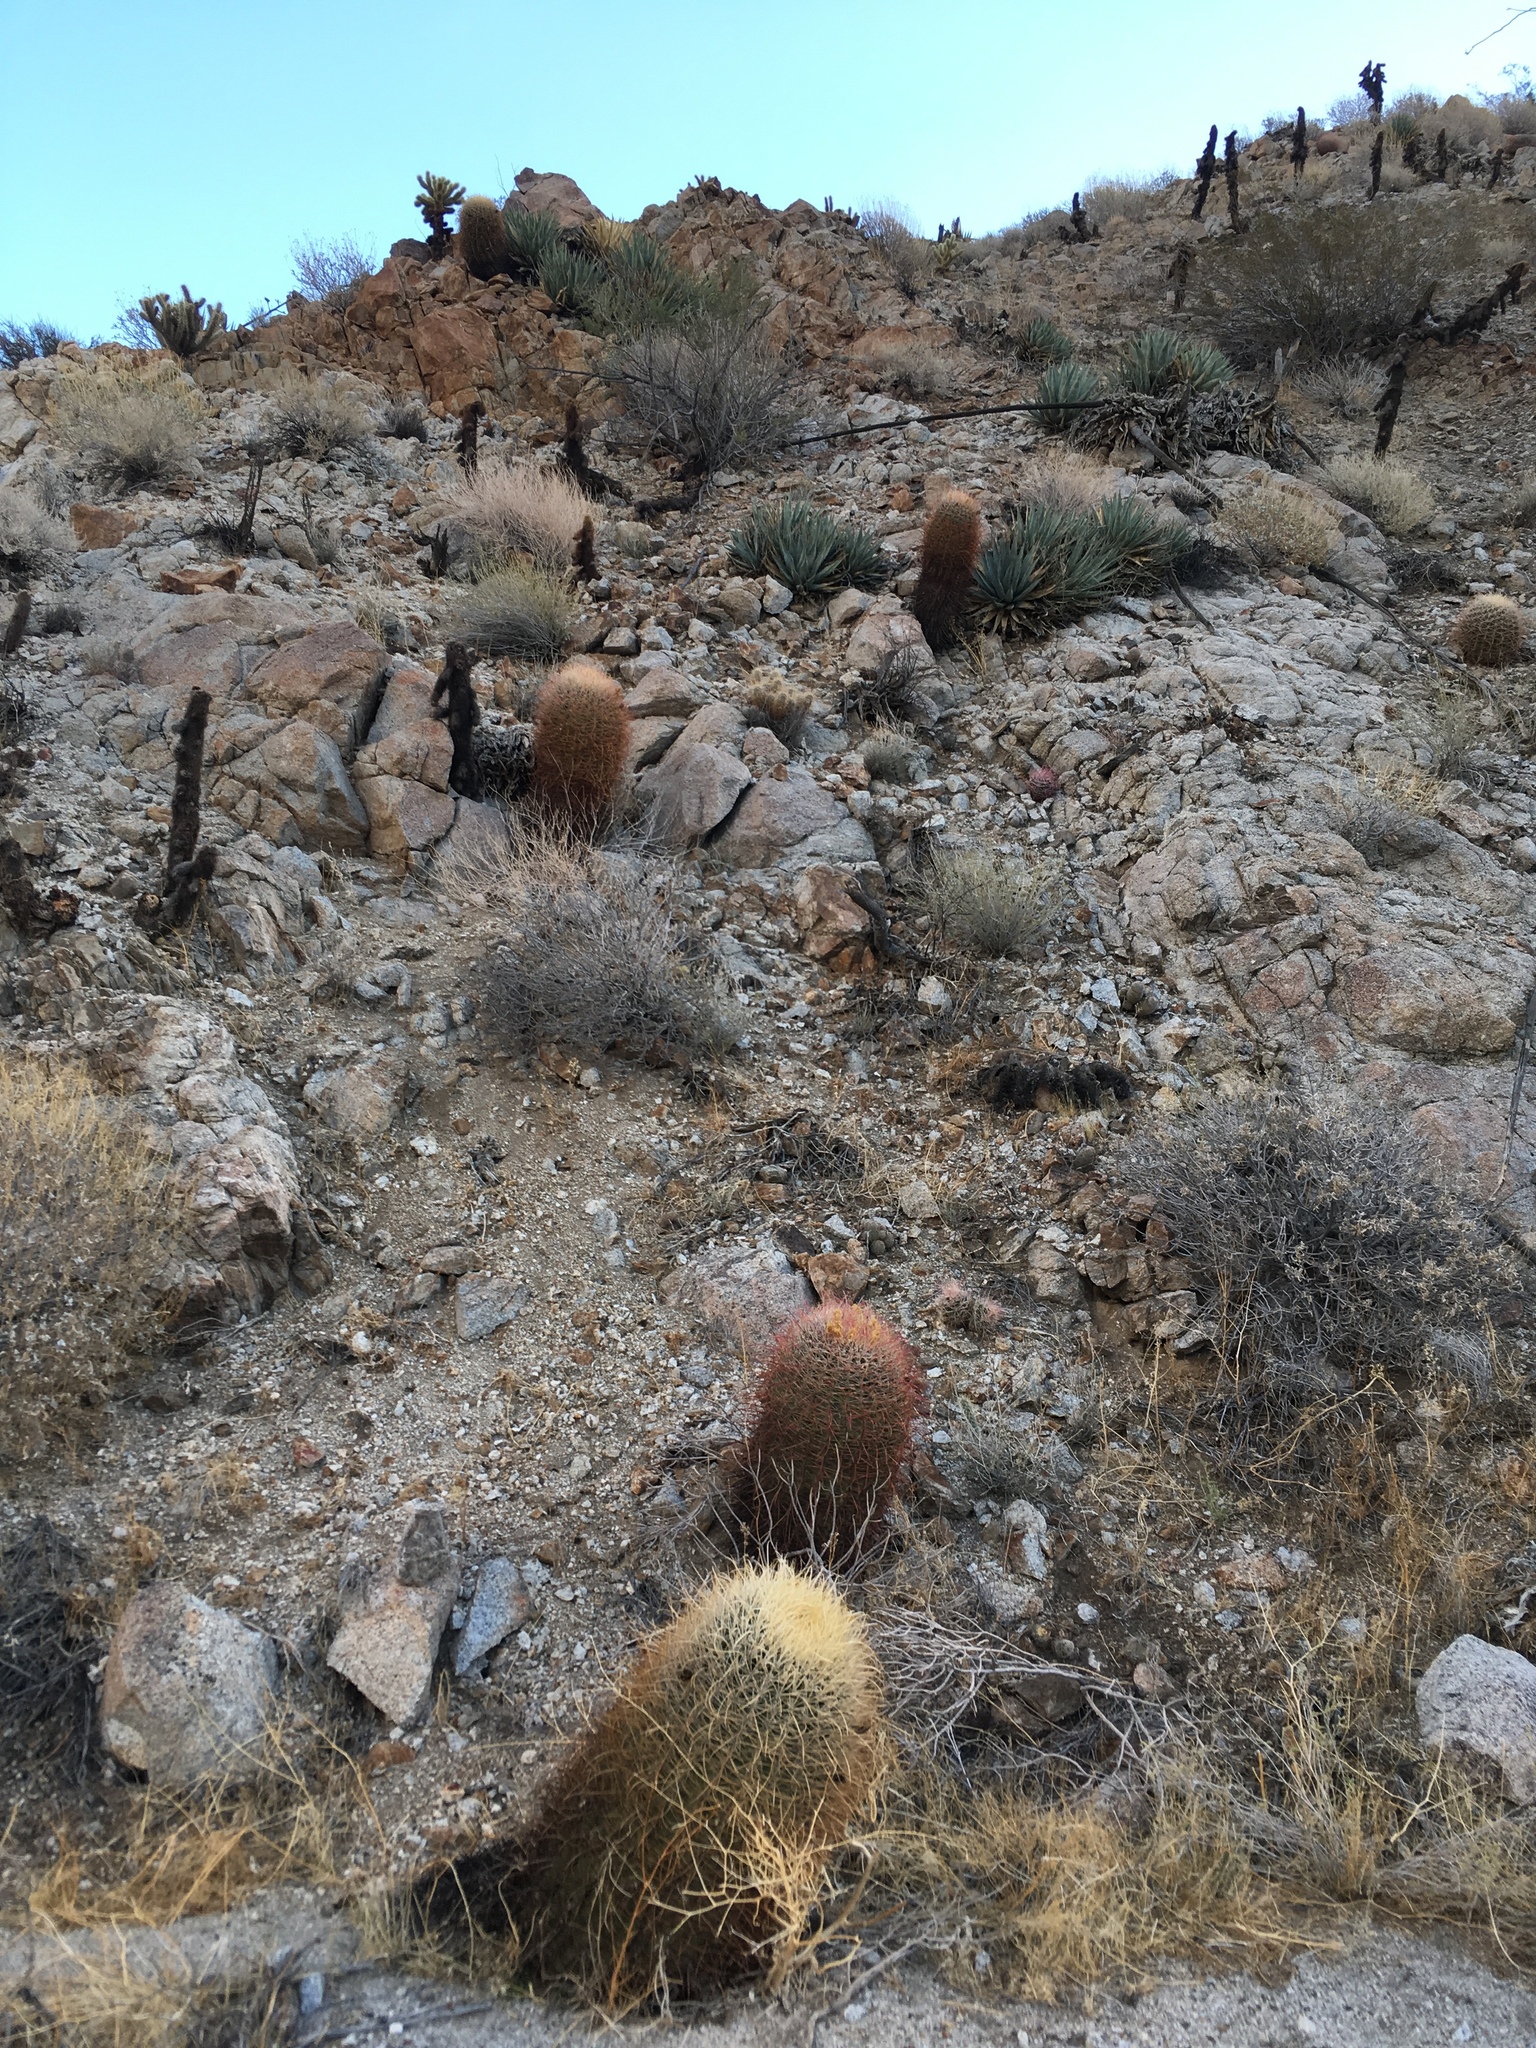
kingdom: Plantae
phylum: Tracheophyta
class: Magnoliopsida
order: Caryophyllales
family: Cactaceae
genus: Ferocactus
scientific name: Ferocactus cylindraceus
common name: California barrel cactus
